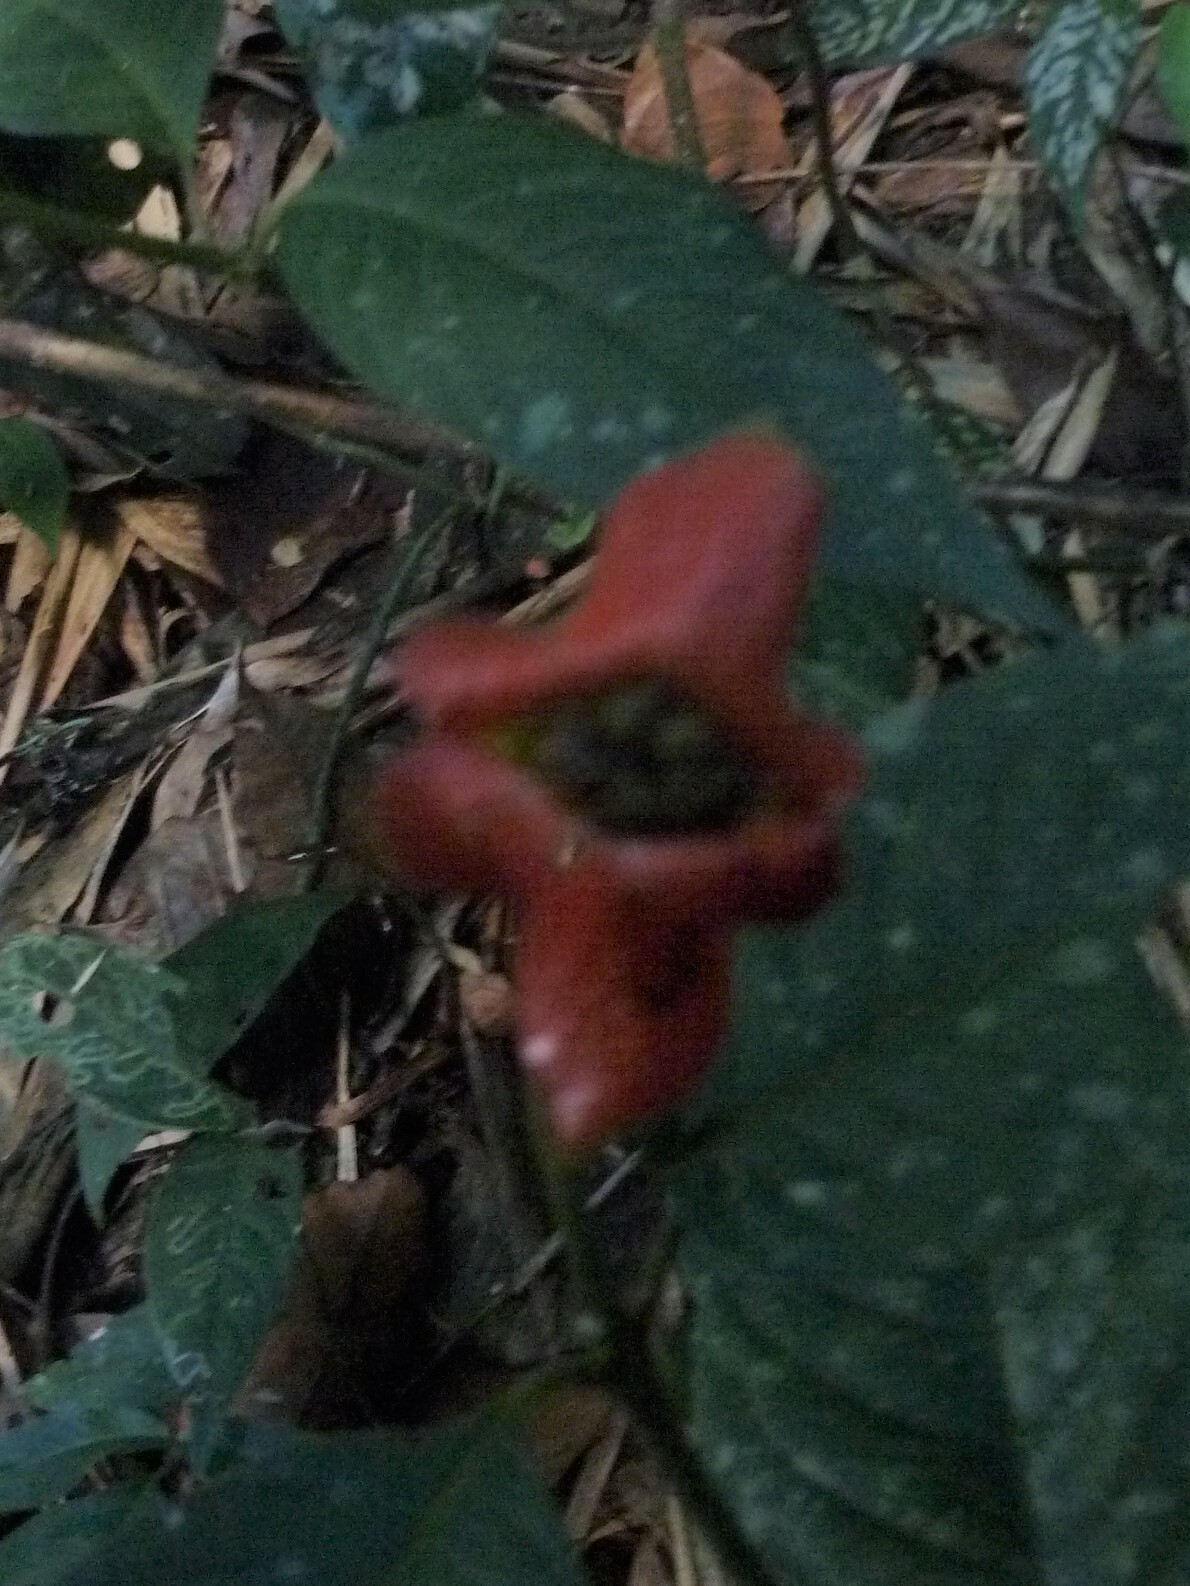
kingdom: Plantae
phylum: Tracheophyta
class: Magnoliopsida
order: Gentianales
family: Rubiaceae
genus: Palicourea
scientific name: Palicourea tomentosa
